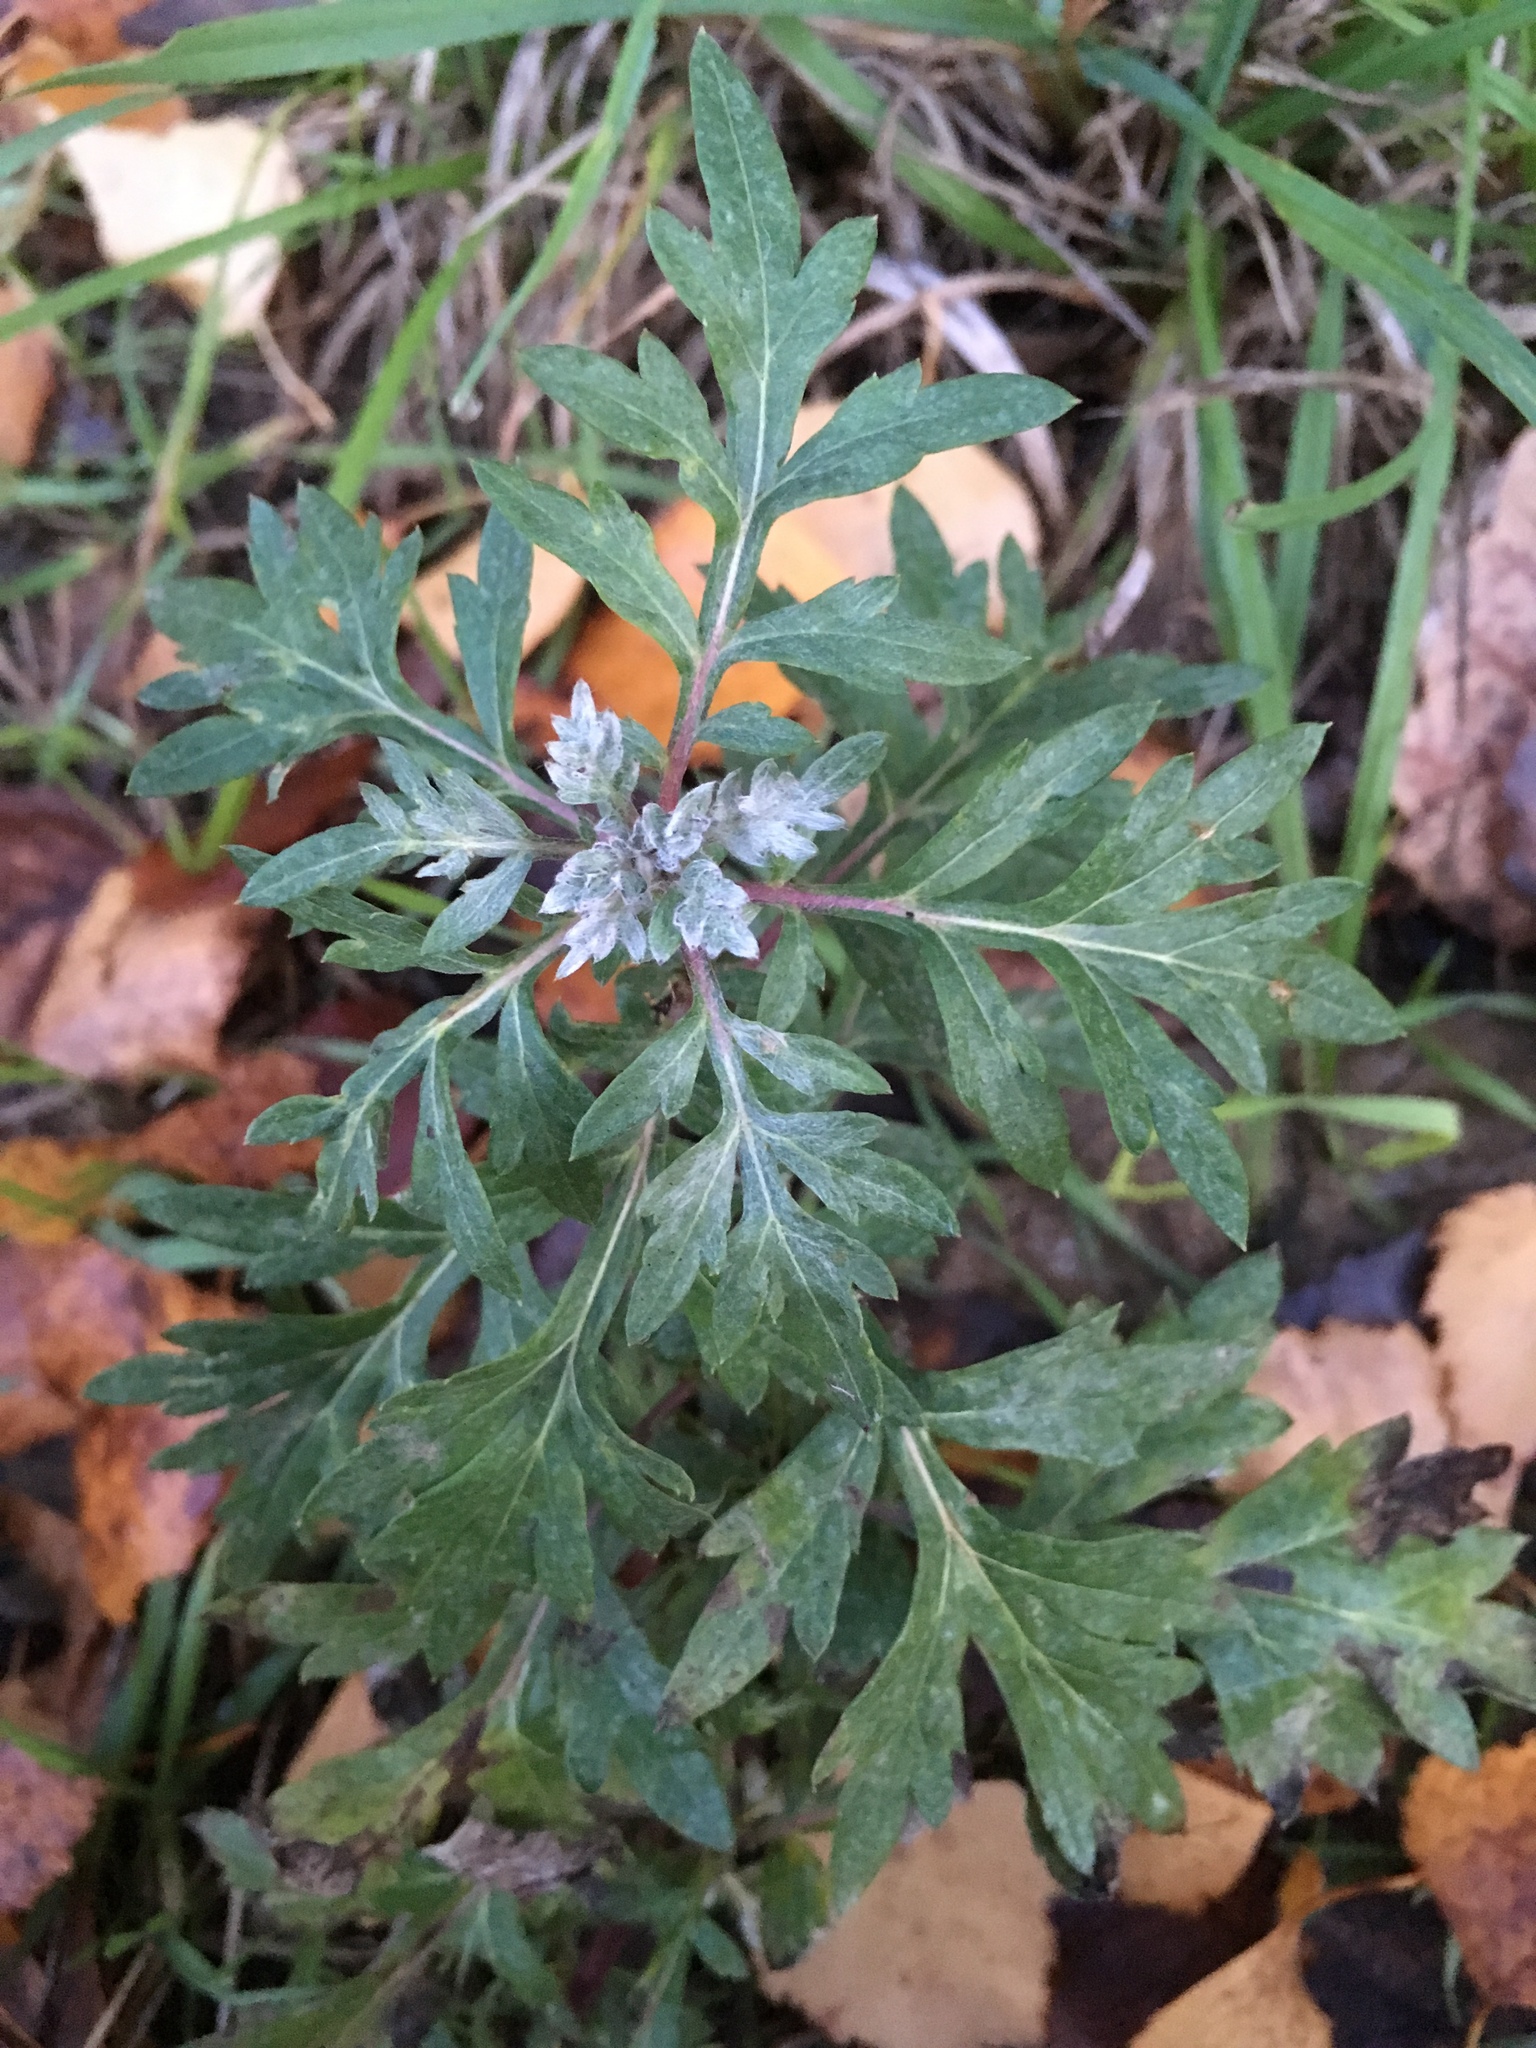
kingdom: Plantae
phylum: Tracheophyta
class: Magnoliopsida
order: Asterales
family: Asteraceae
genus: Artemisia
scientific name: Artemisia vulgaris
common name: Mugwort
